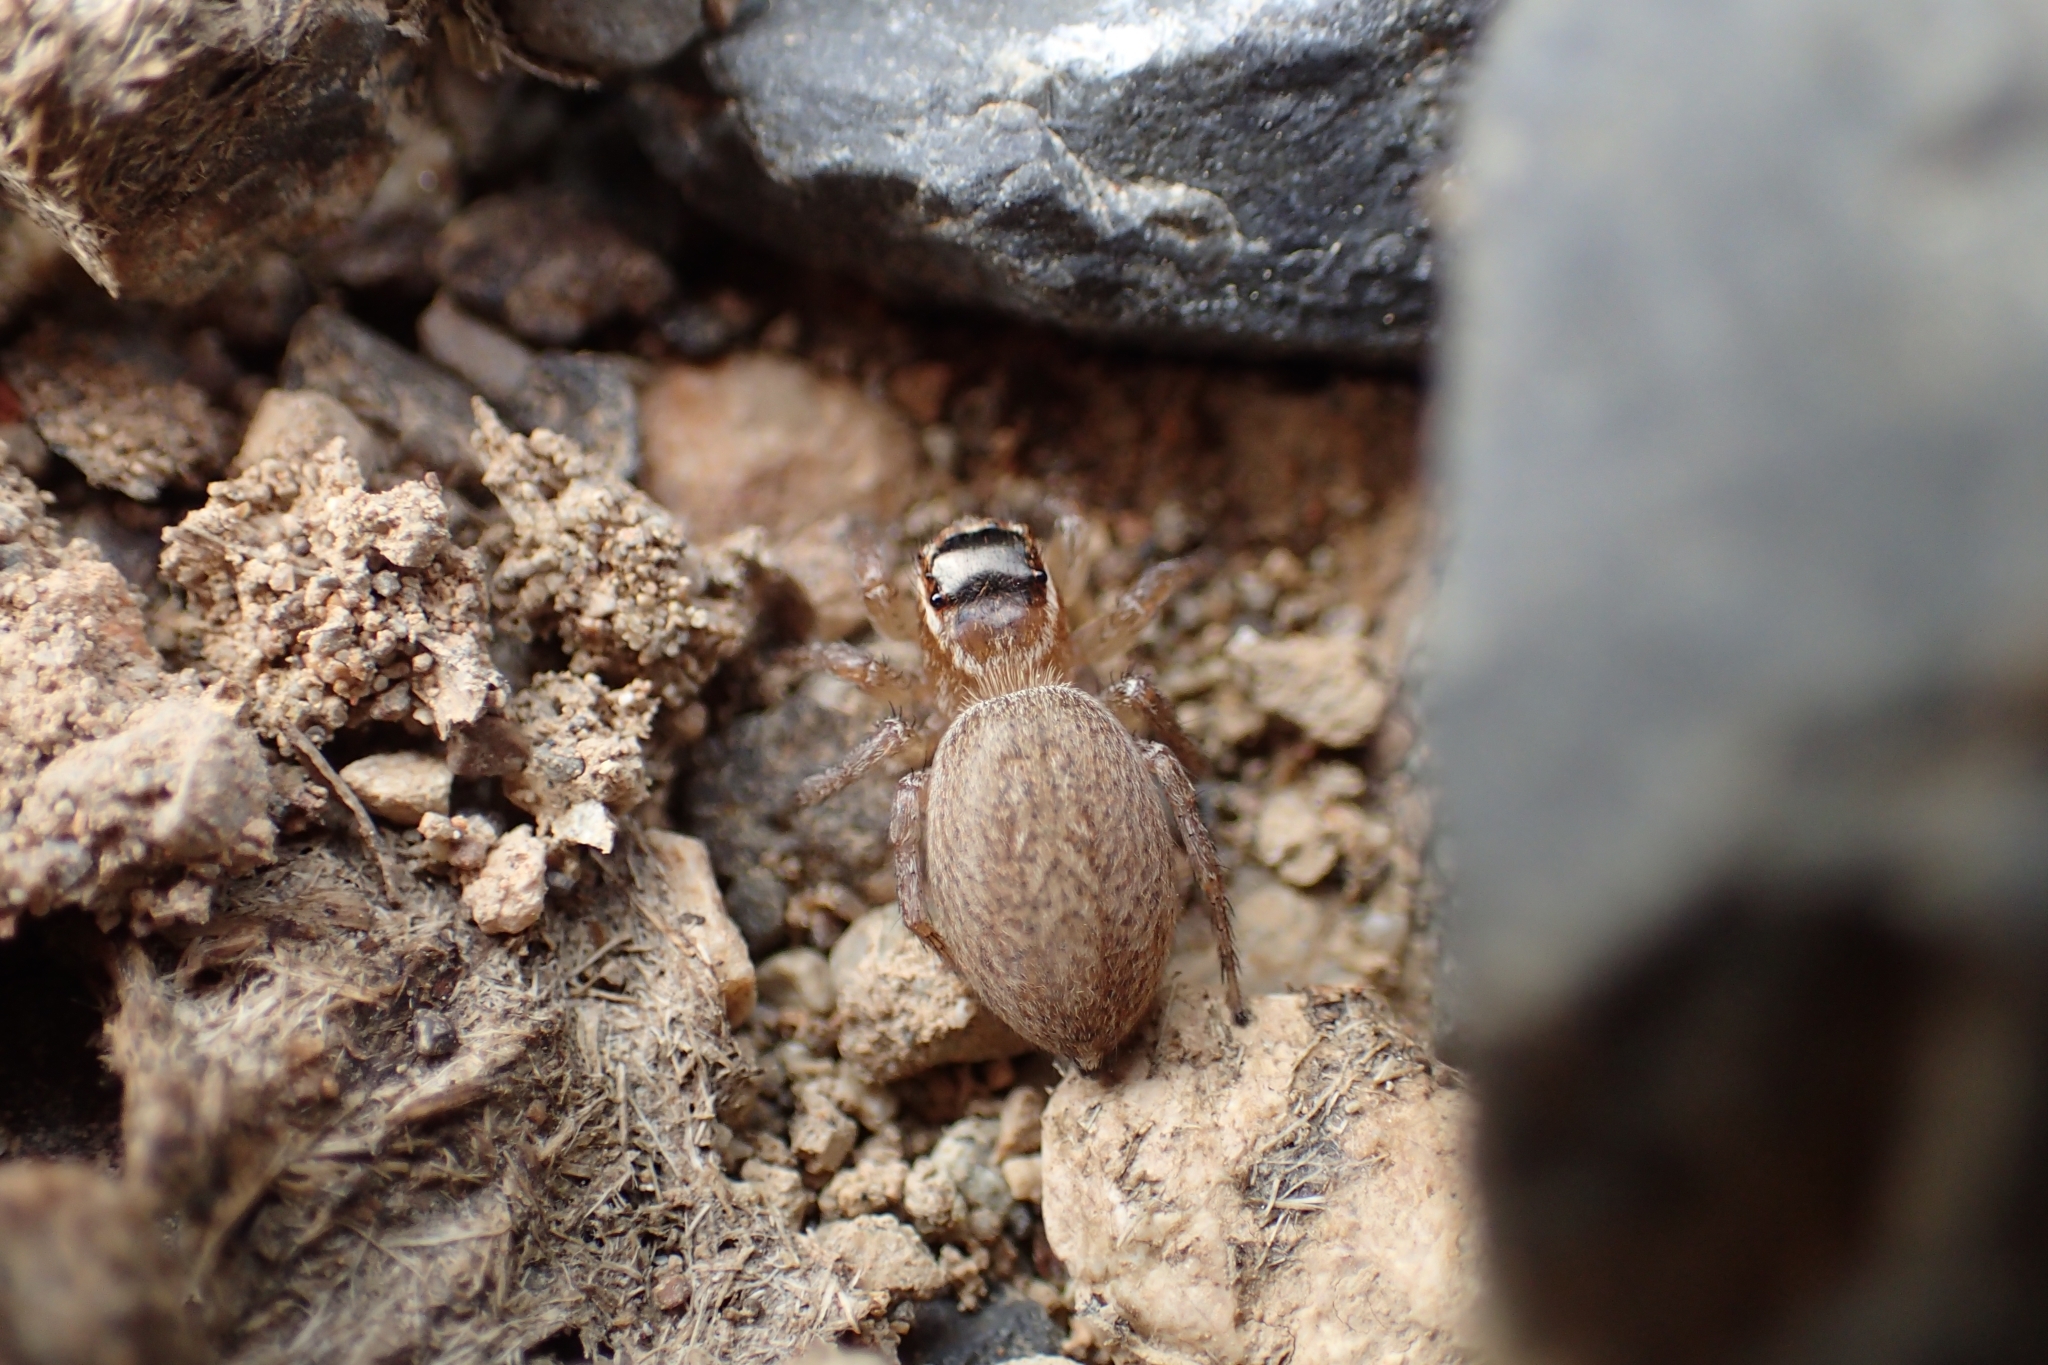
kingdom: Animalia
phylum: Arthropoda
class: Arachnida
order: Araneae
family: Salticidae
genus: Maratus
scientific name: Maratus griseus
